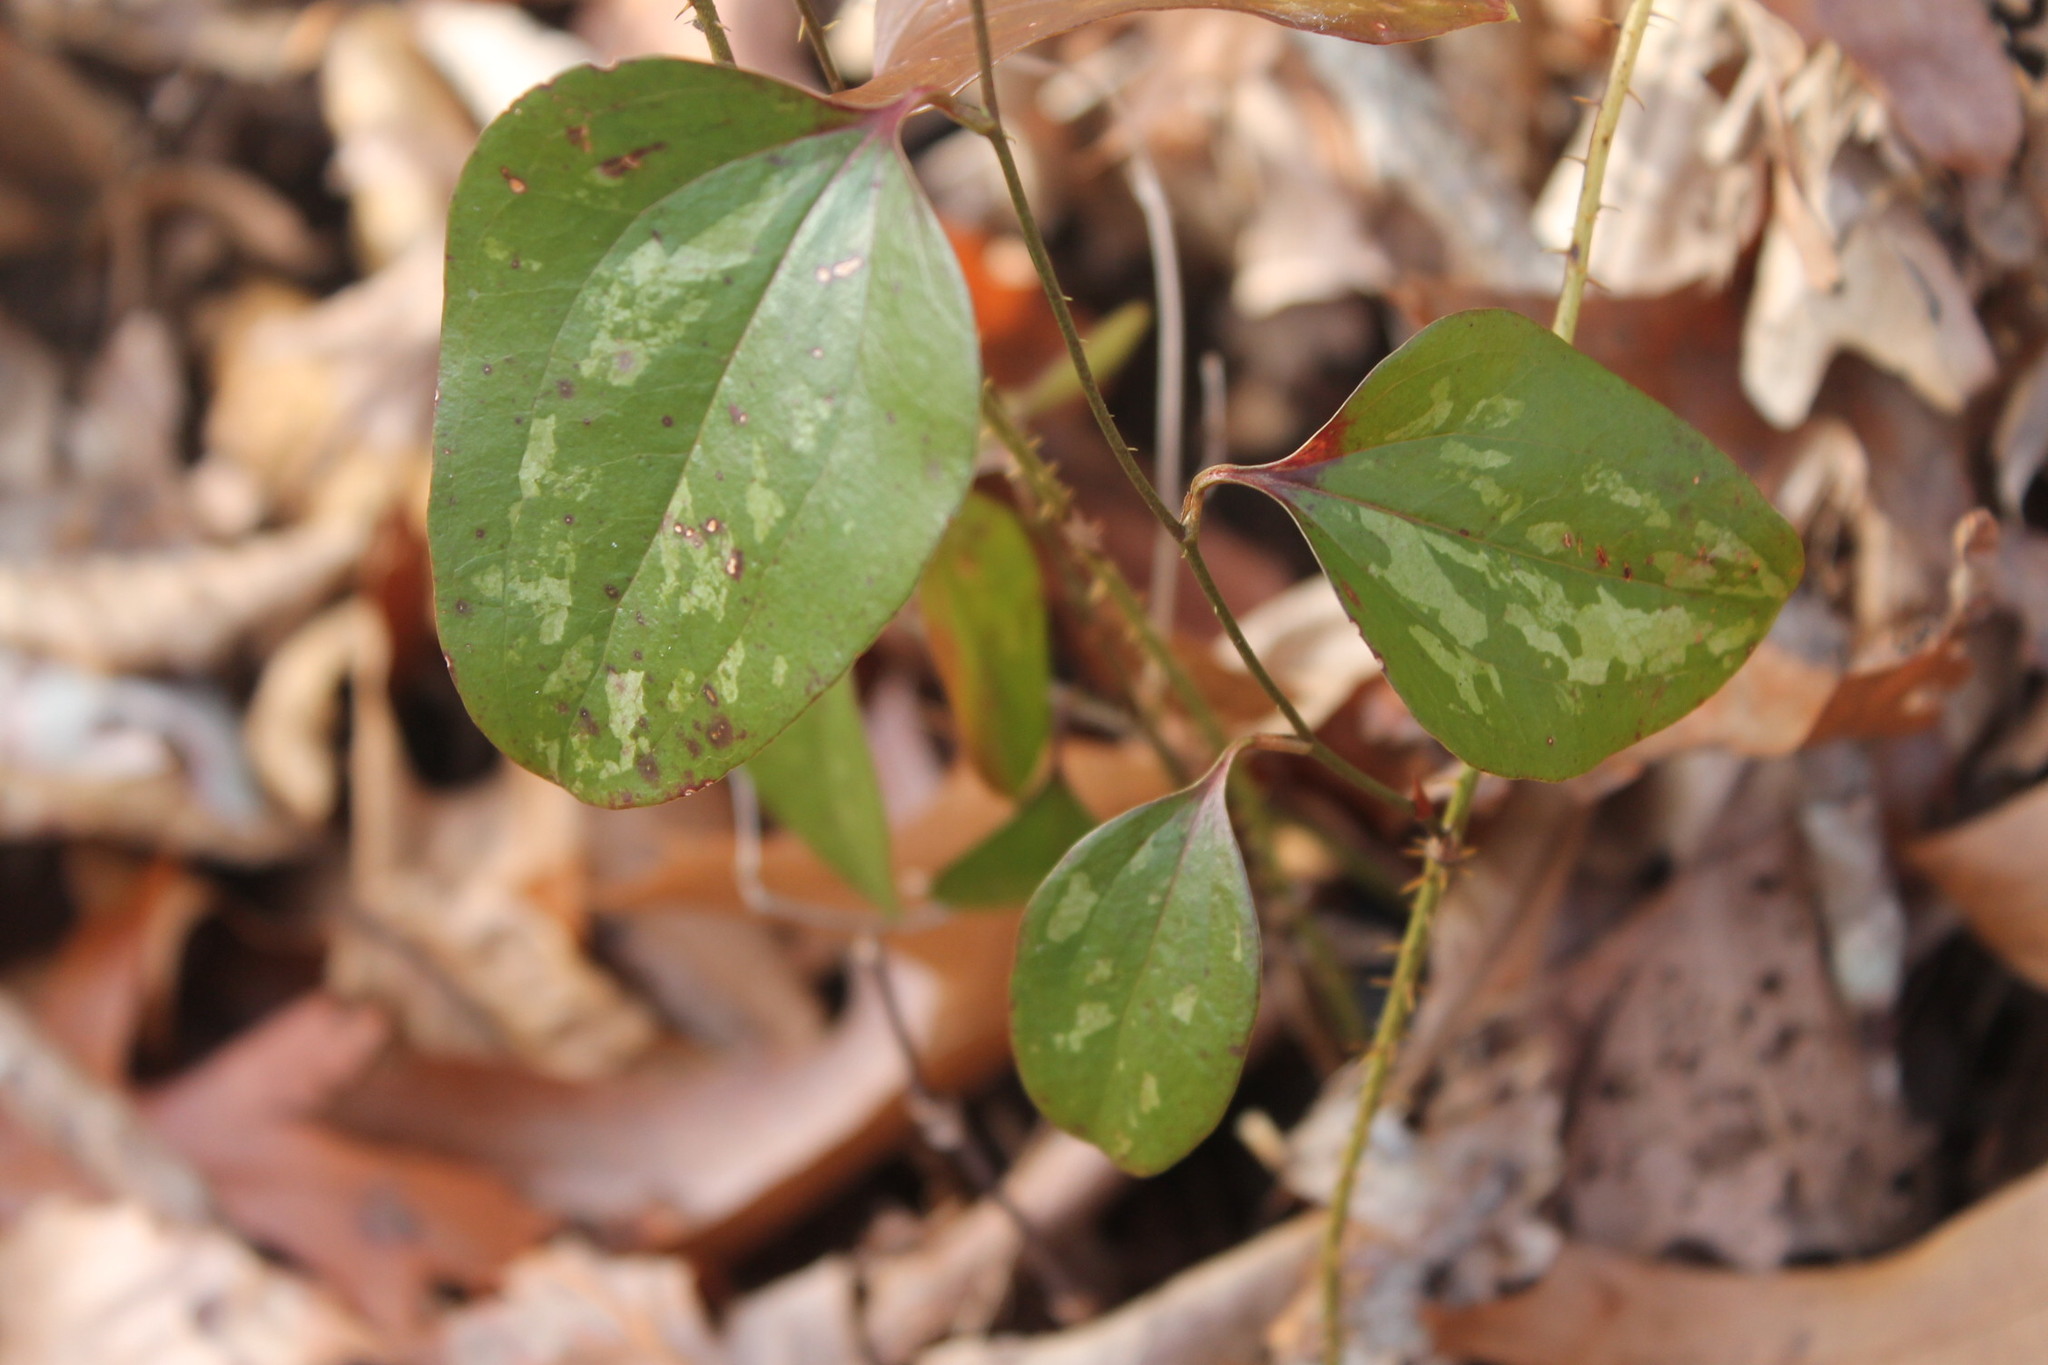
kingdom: Plantae
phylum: Tracheophyta
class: Liliopsida
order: Liliales
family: Smilacaceae
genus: Smilax
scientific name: Smilax glauca
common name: Cat greenbrier
